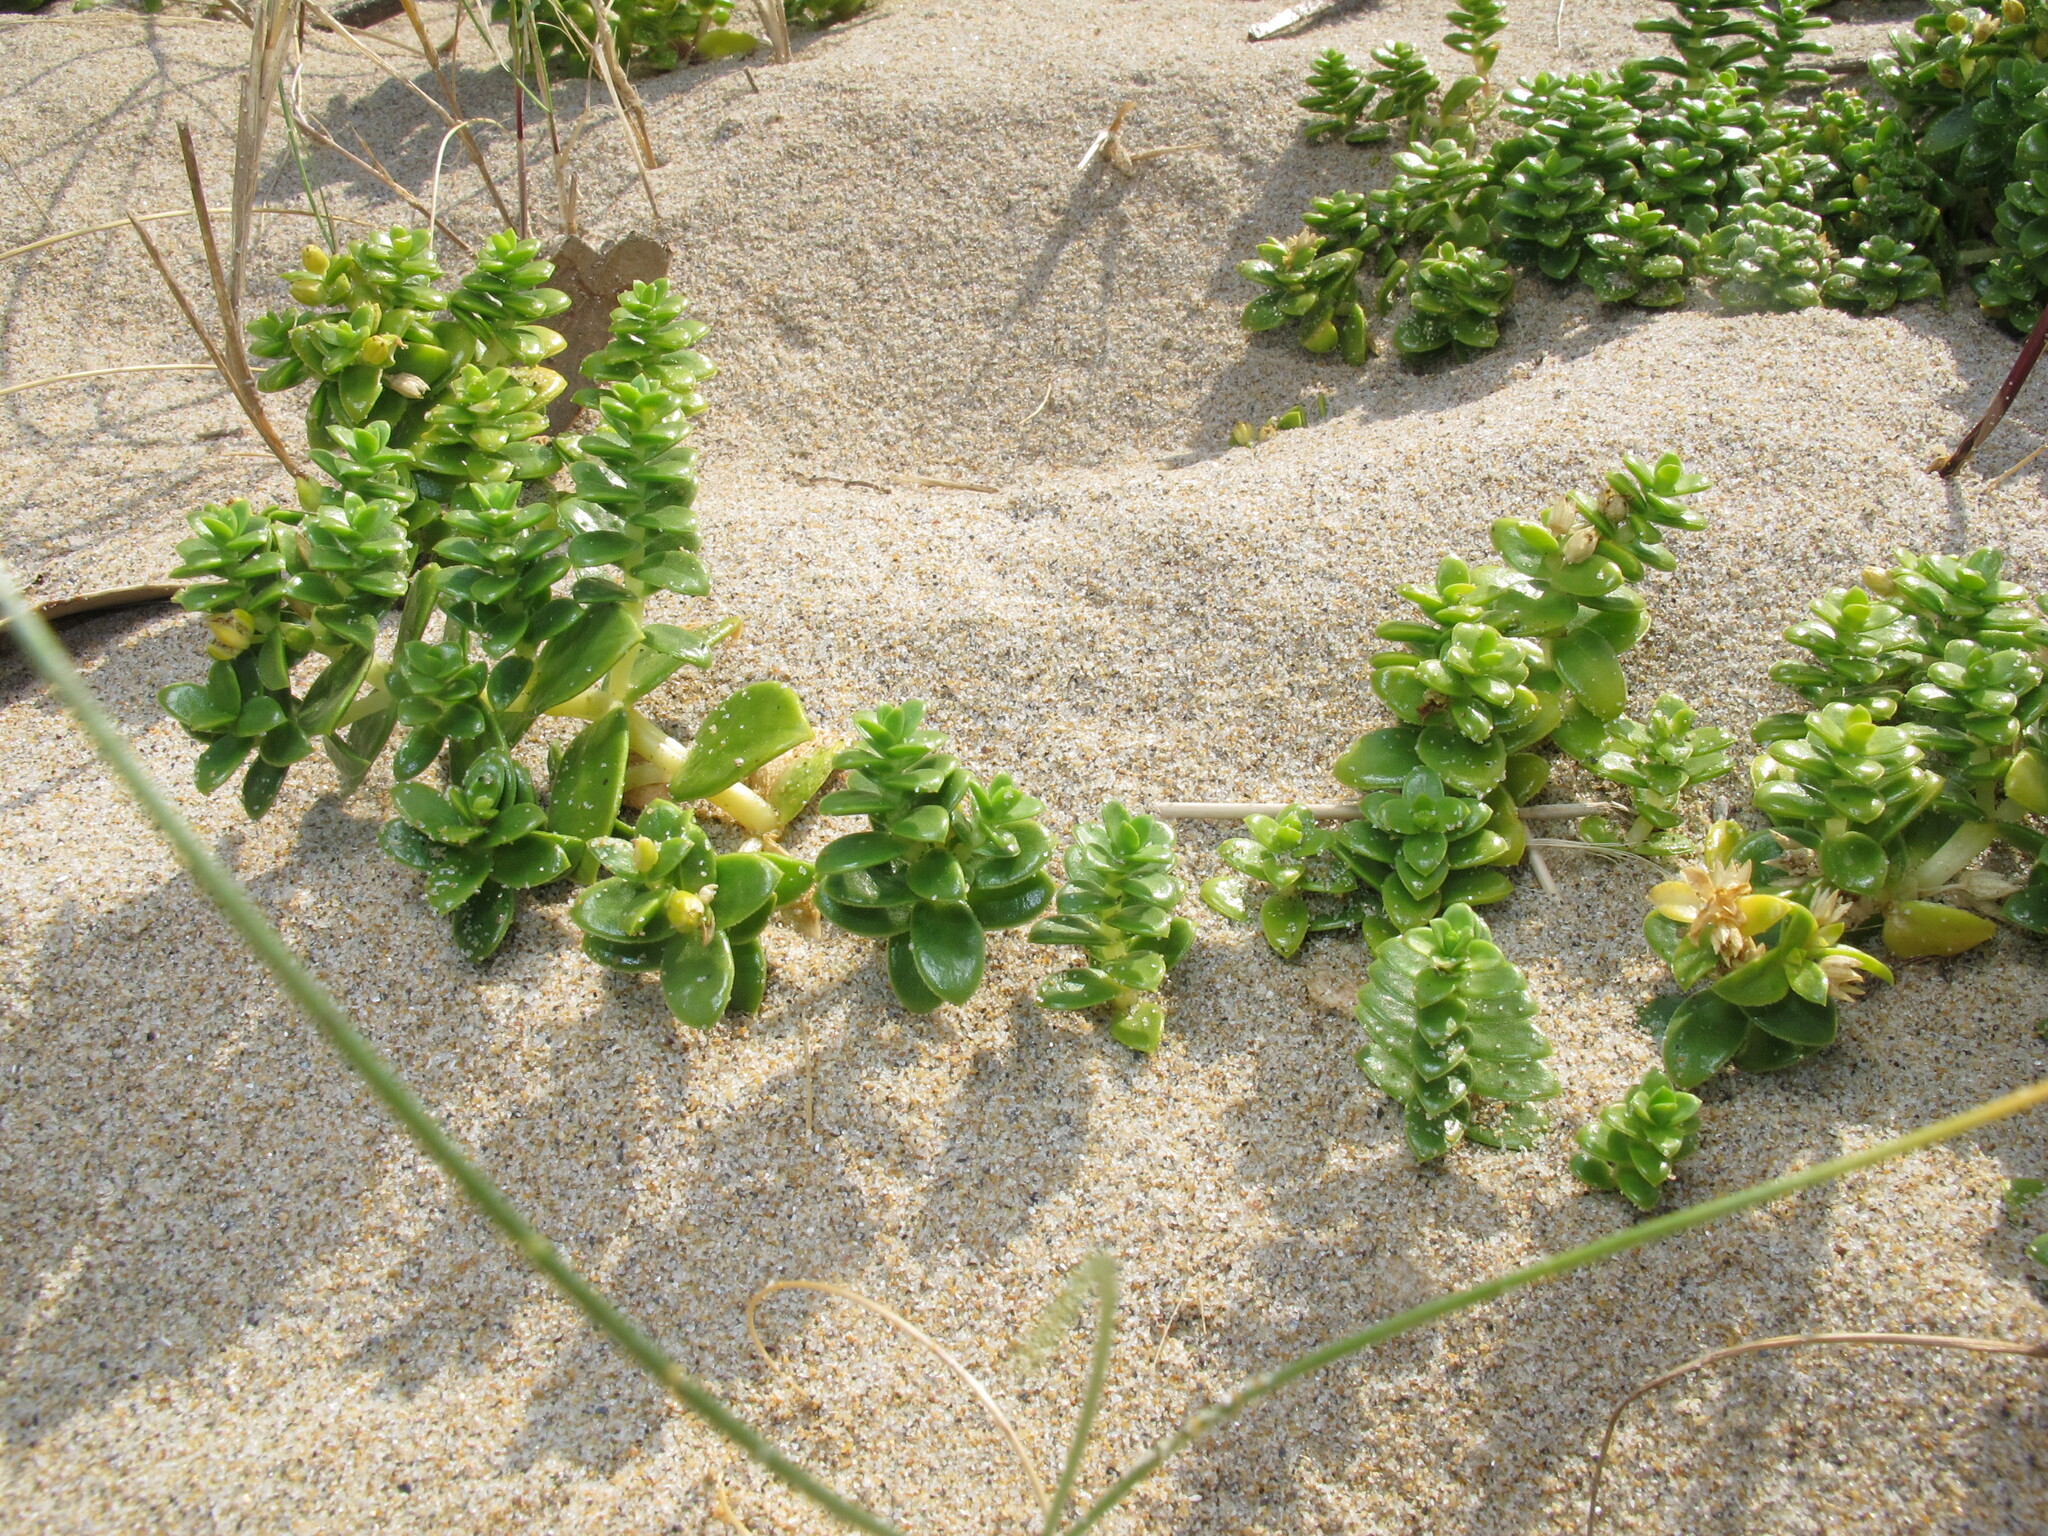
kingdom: Plantae
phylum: Tracheophyta
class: Magnoliopsida
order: Caryophyllales
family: Caryophyllaceae
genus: Honckenya
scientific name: Honckenya peploides
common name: Sea sandwort
